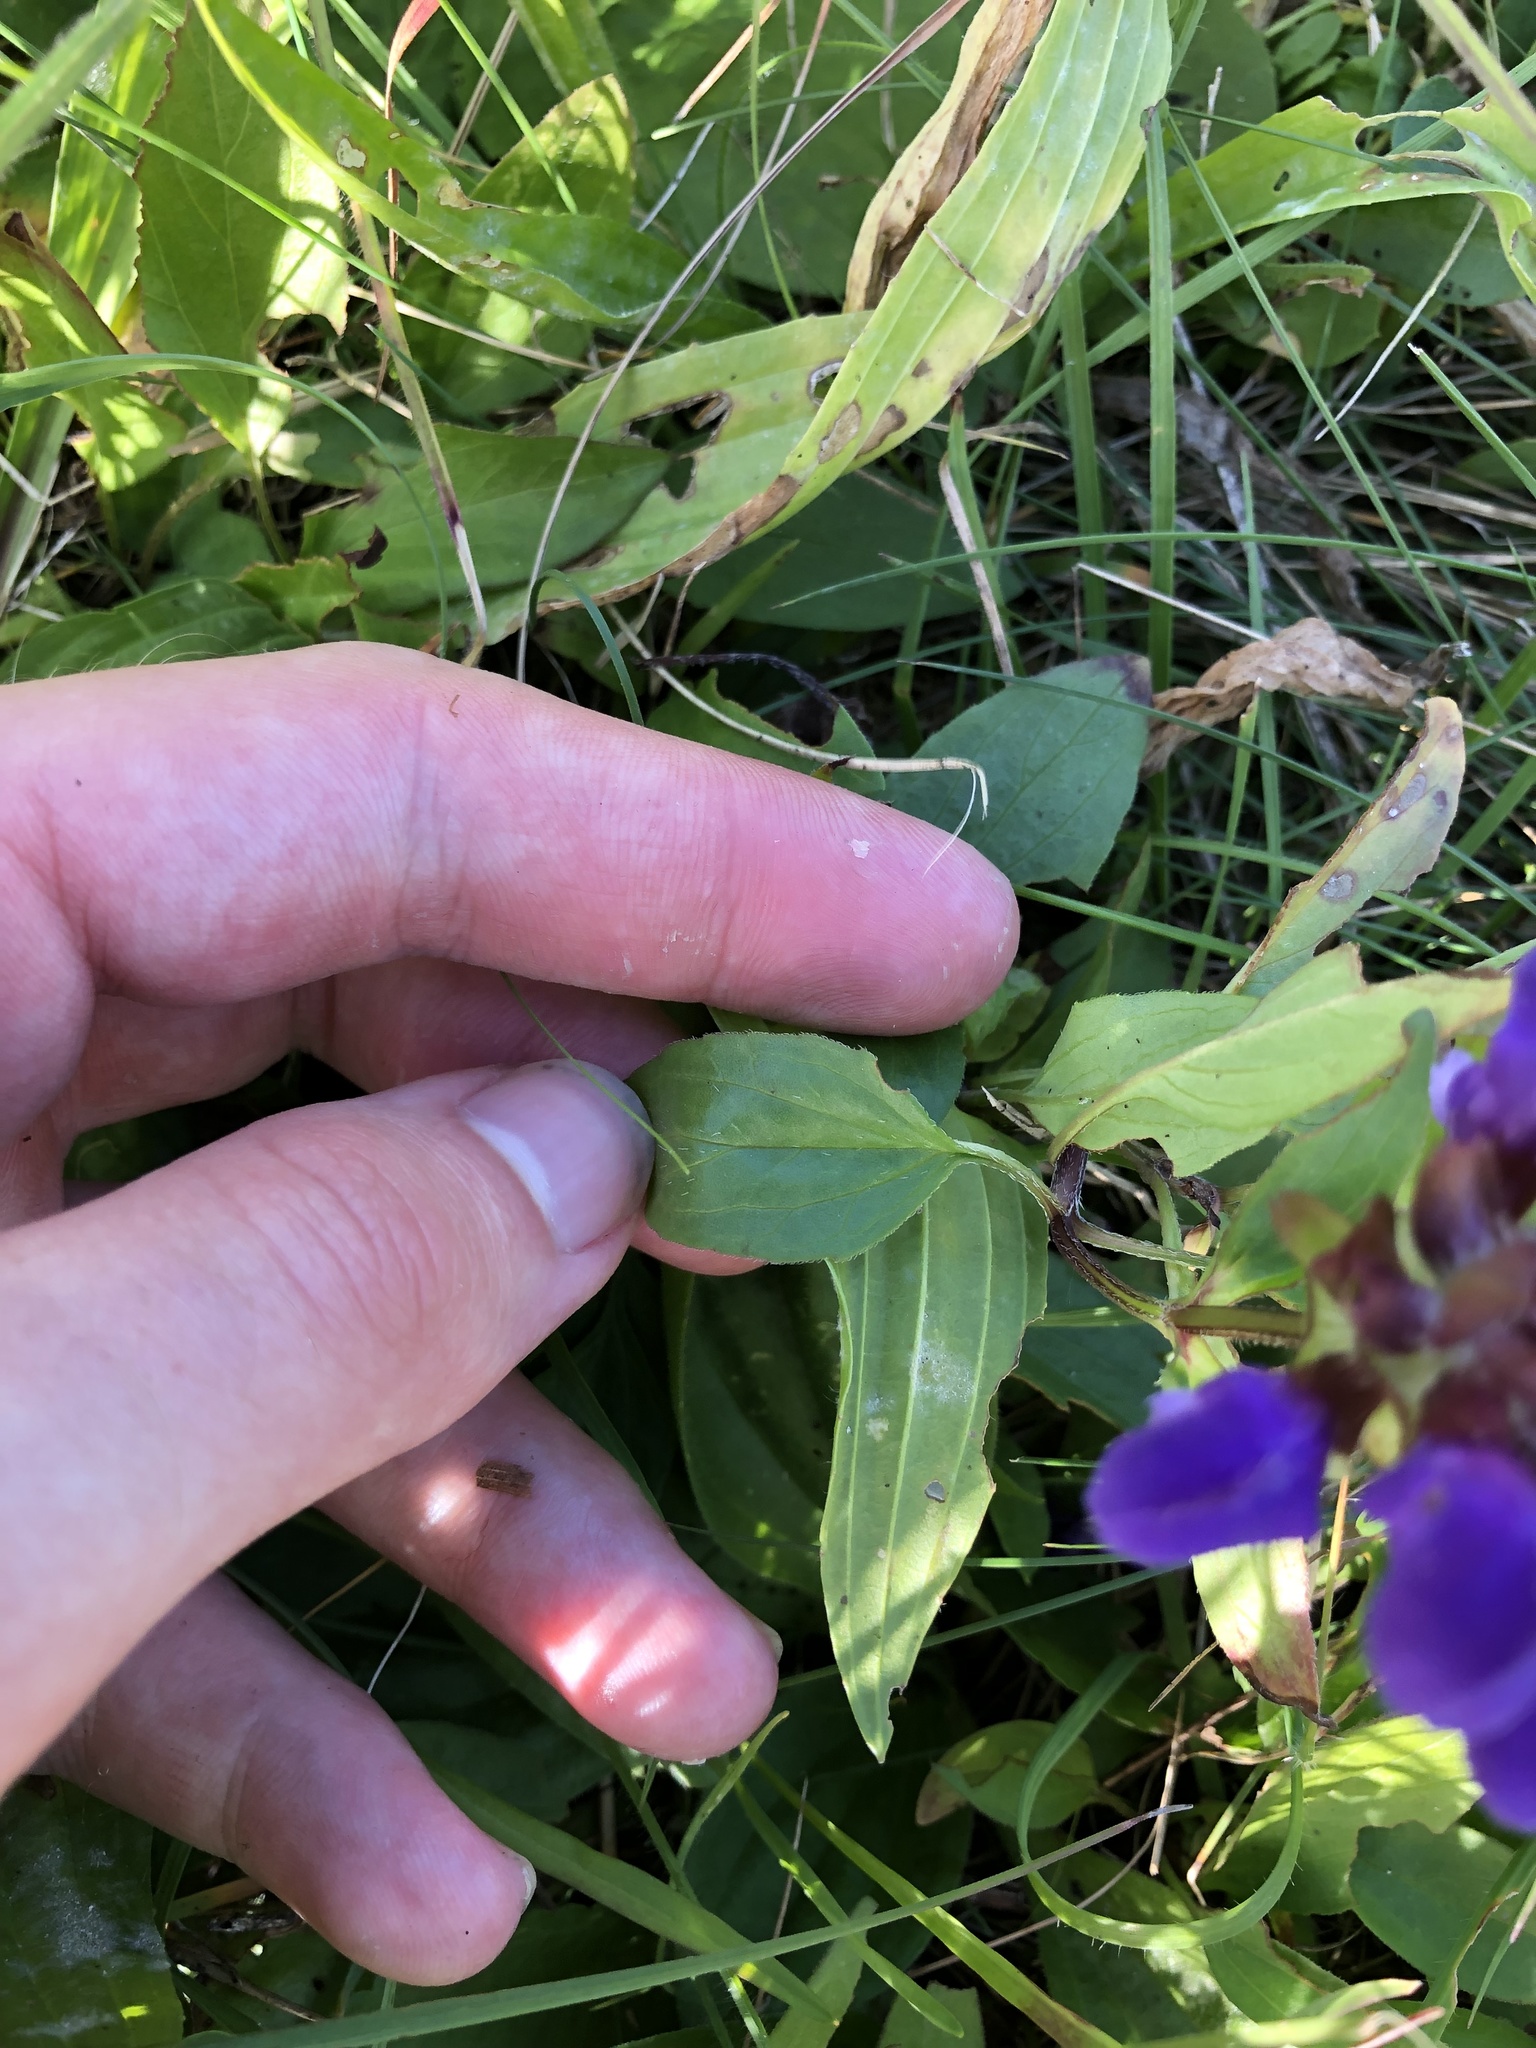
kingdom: Plantae
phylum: Tracheophyta
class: Magnoliopsida
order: Lamiales
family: Lamiaceae
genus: Prunella
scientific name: Prunella grandiflora
